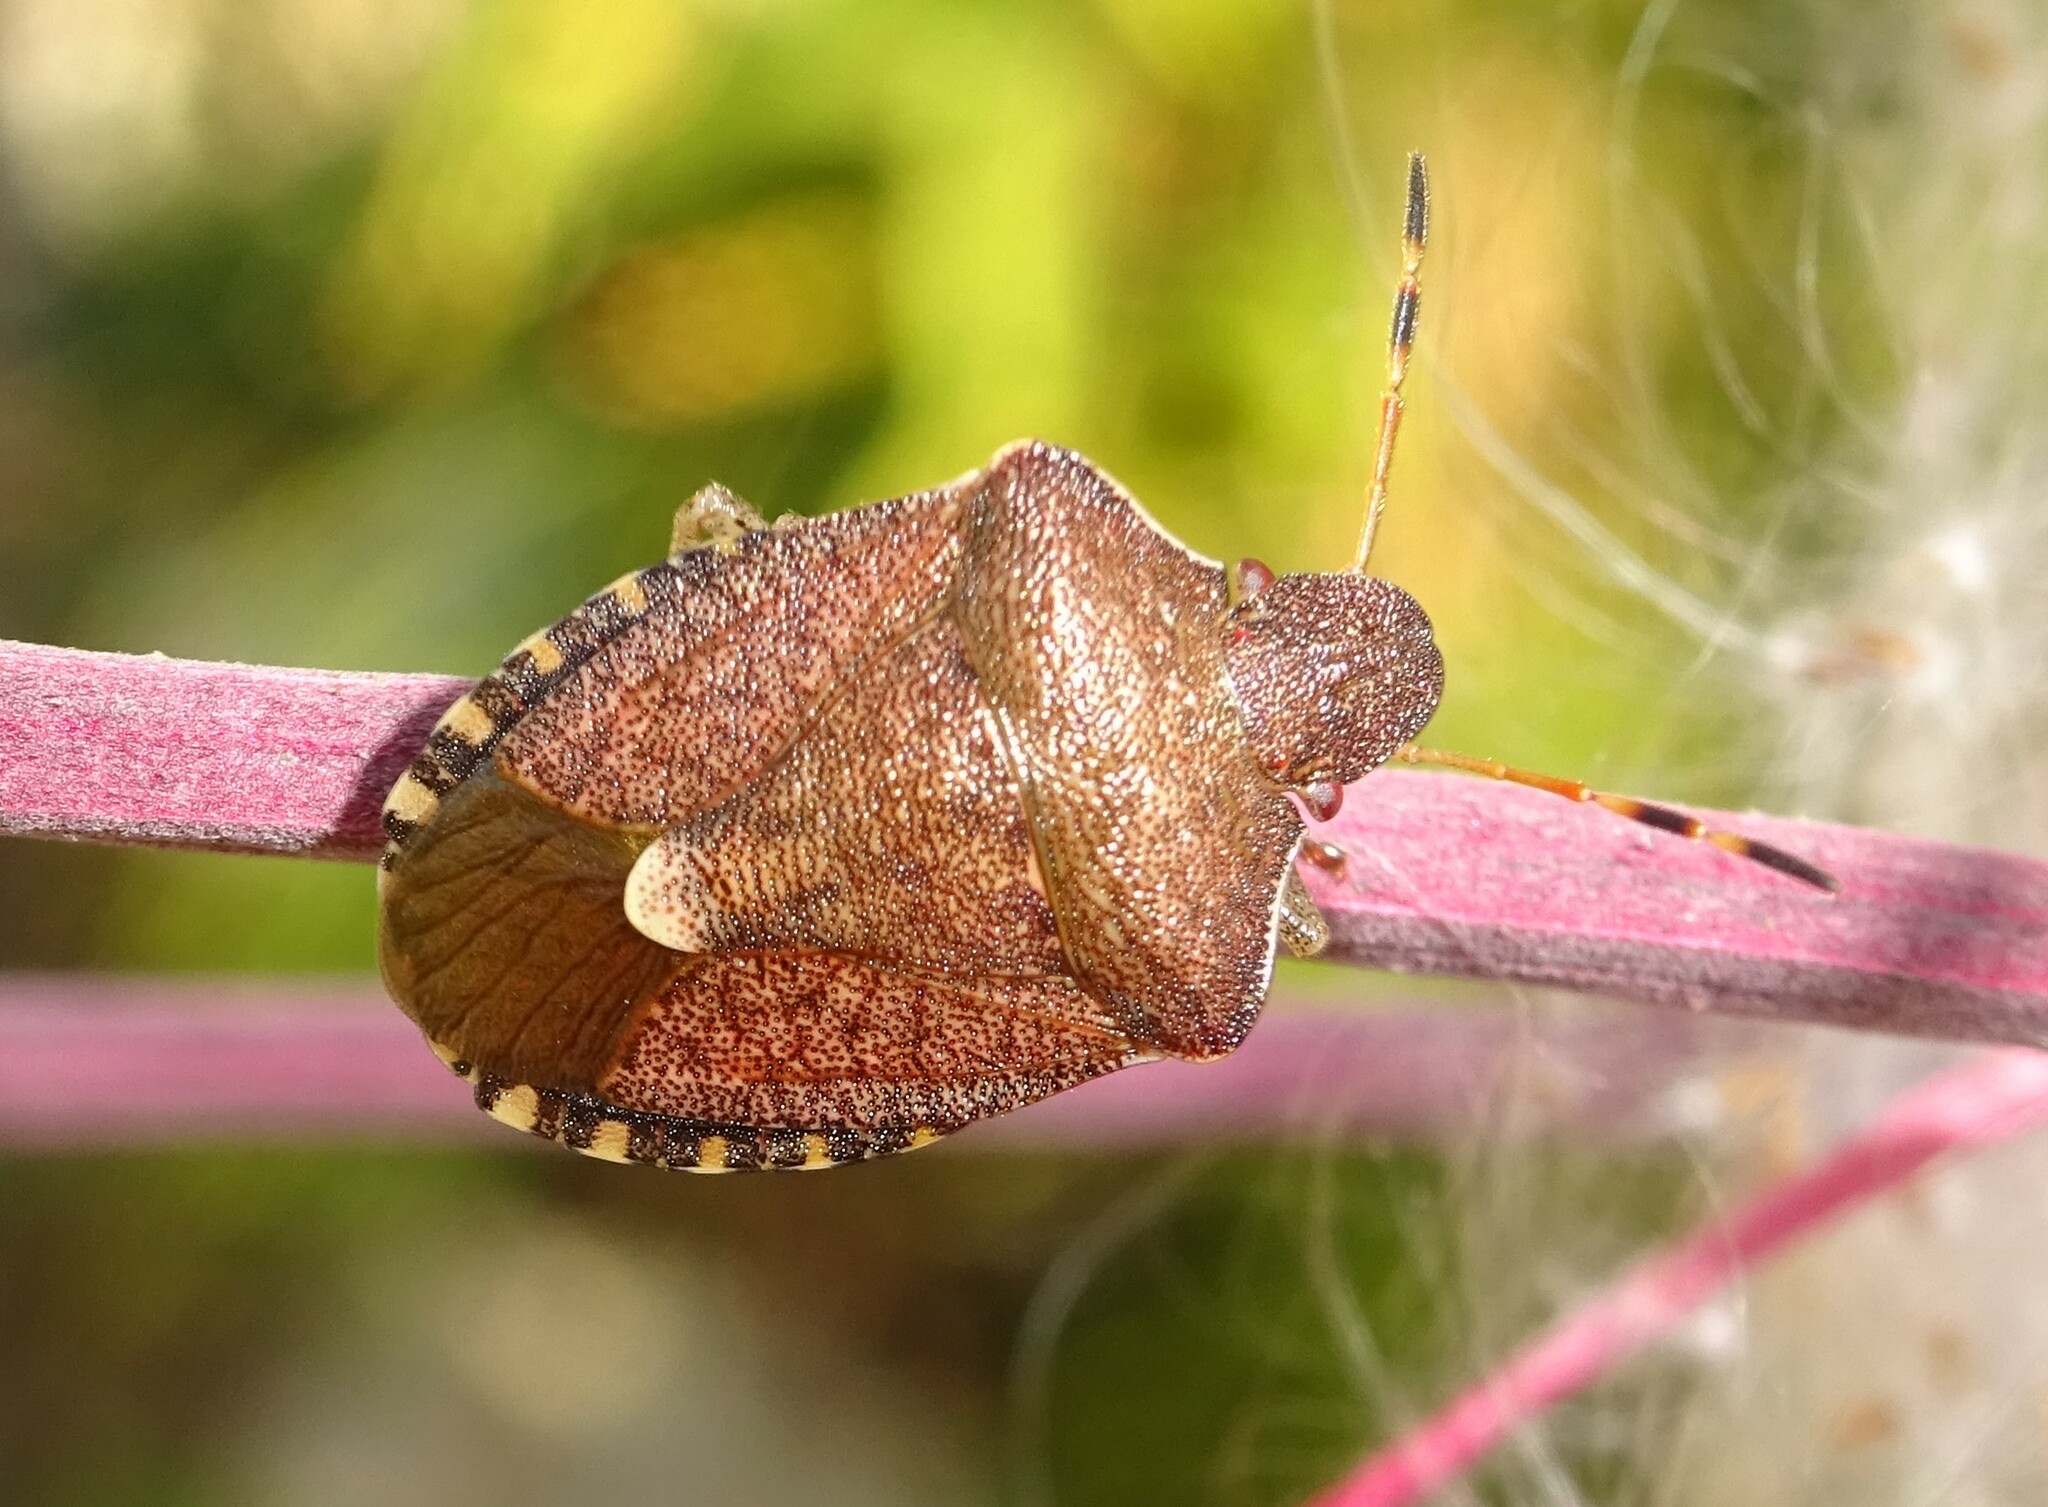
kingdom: Animalia
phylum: Arthropoda
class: Insecta
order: Hemiptera
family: Pentatomidae
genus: Holcostethus
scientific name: Holcostethus strictus
